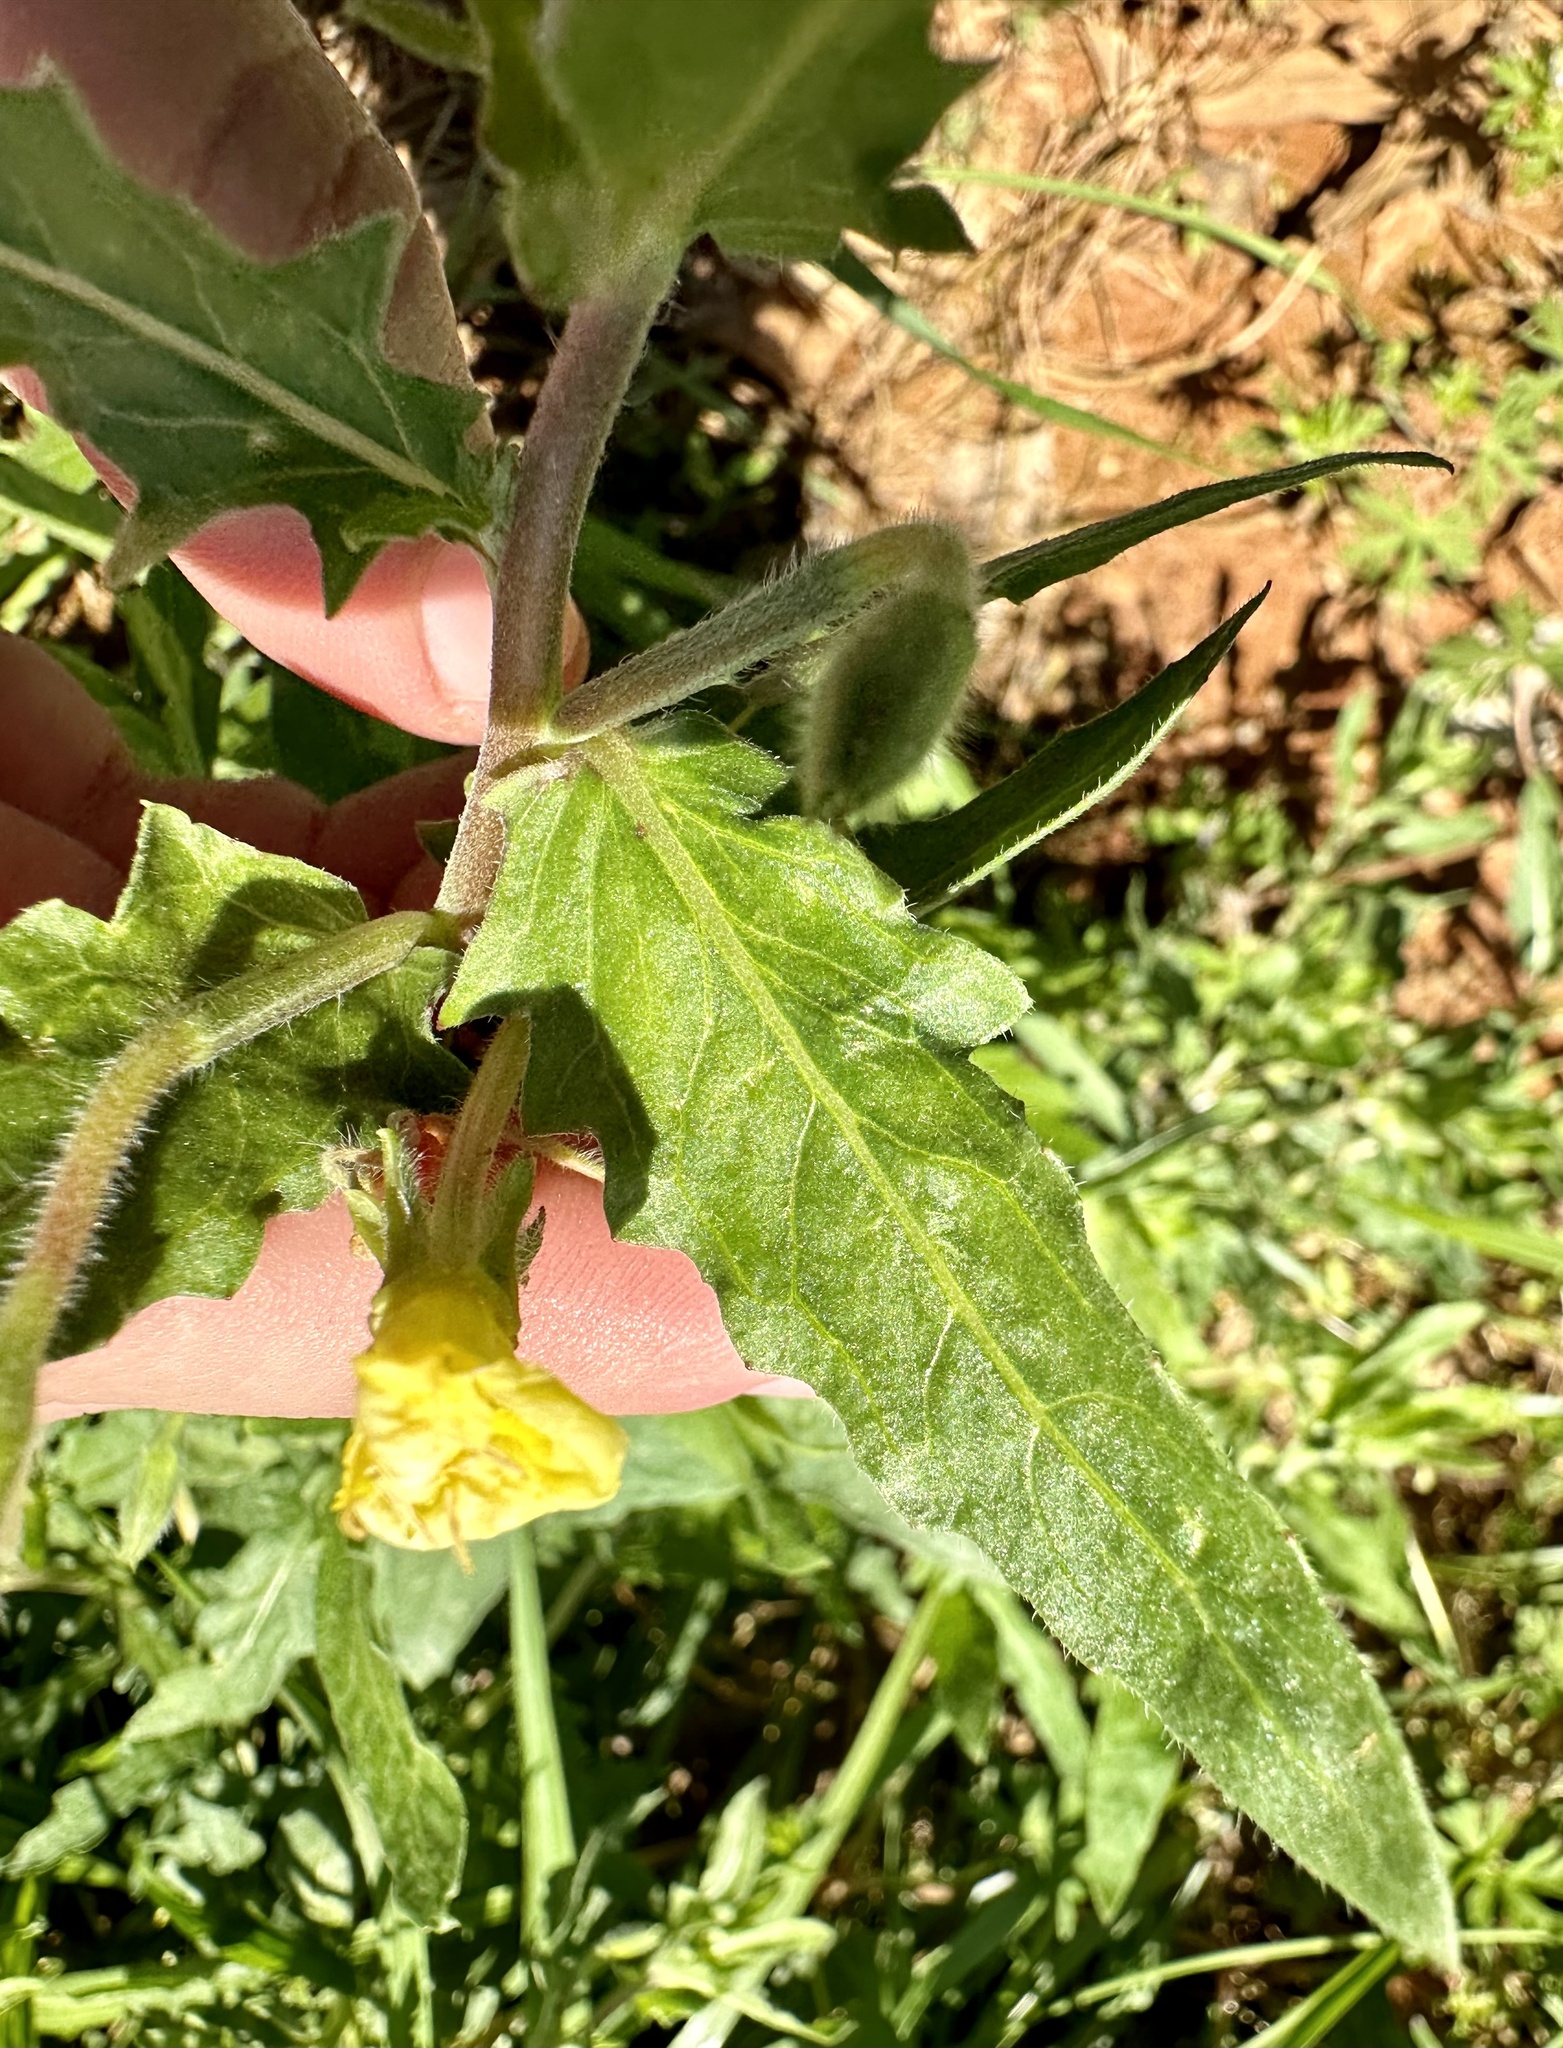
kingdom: Plantae
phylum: Tracheophyta
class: Magnoliopsida
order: Myrtales
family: Onagraceae
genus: Oenothera
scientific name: Oenothera laciniata
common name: Cut-leaved evening-primrose
